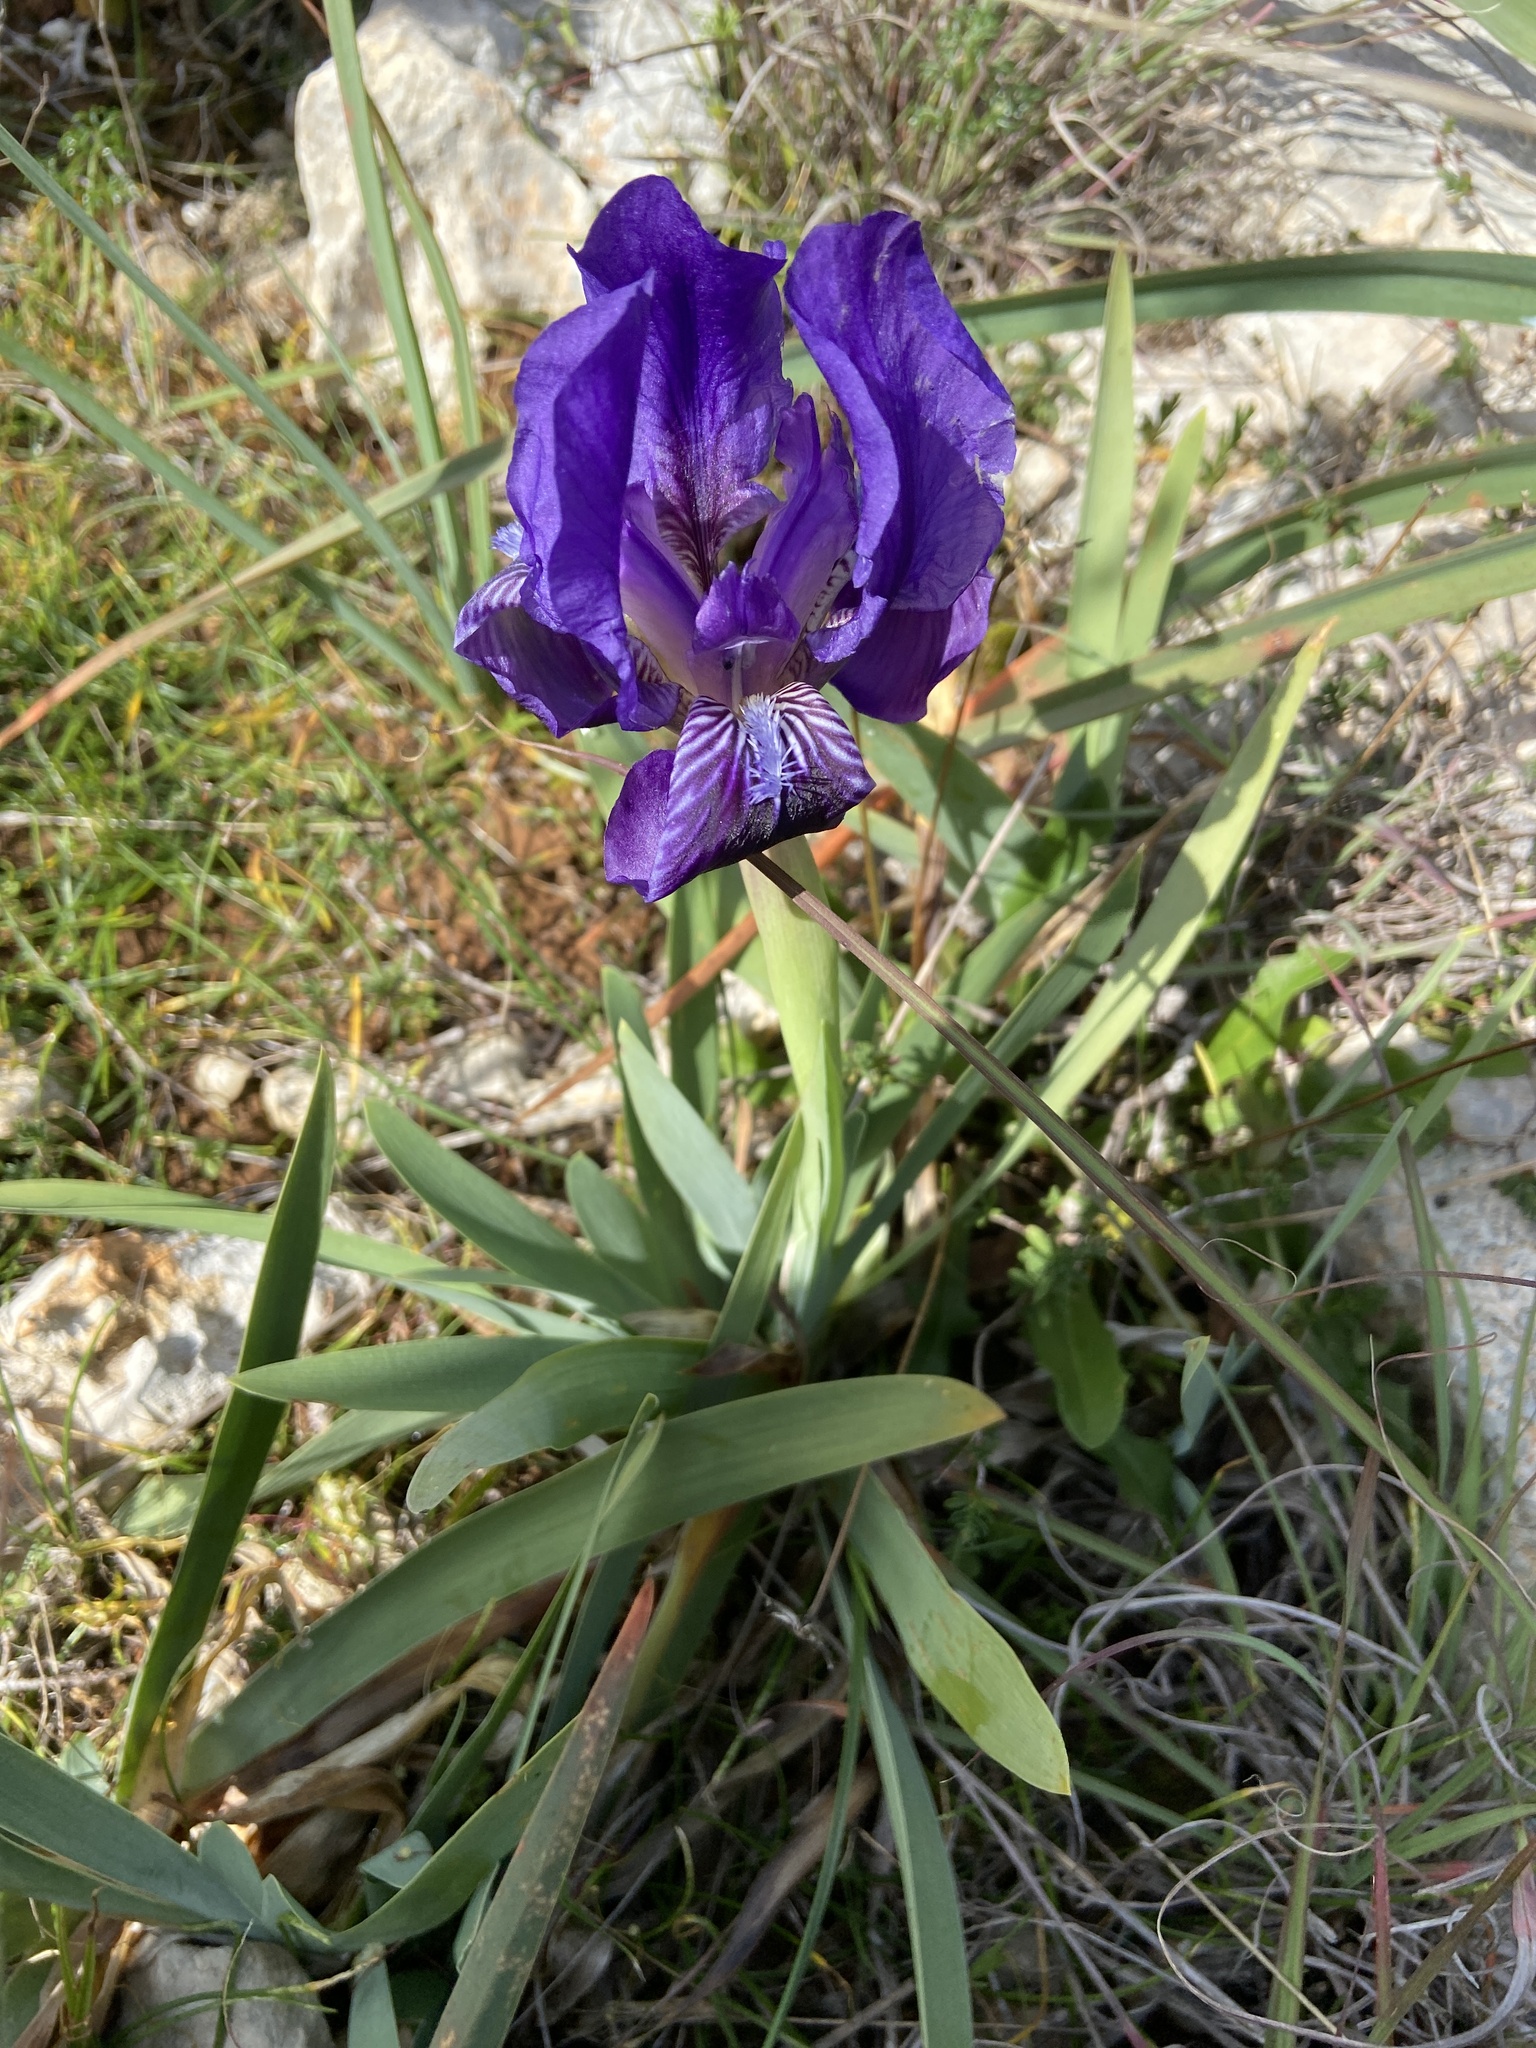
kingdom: Plantae
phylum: Tracheophyta
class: Liliopsida
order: Asparagales
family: Iridaceae
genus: Iris
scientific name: Iris
